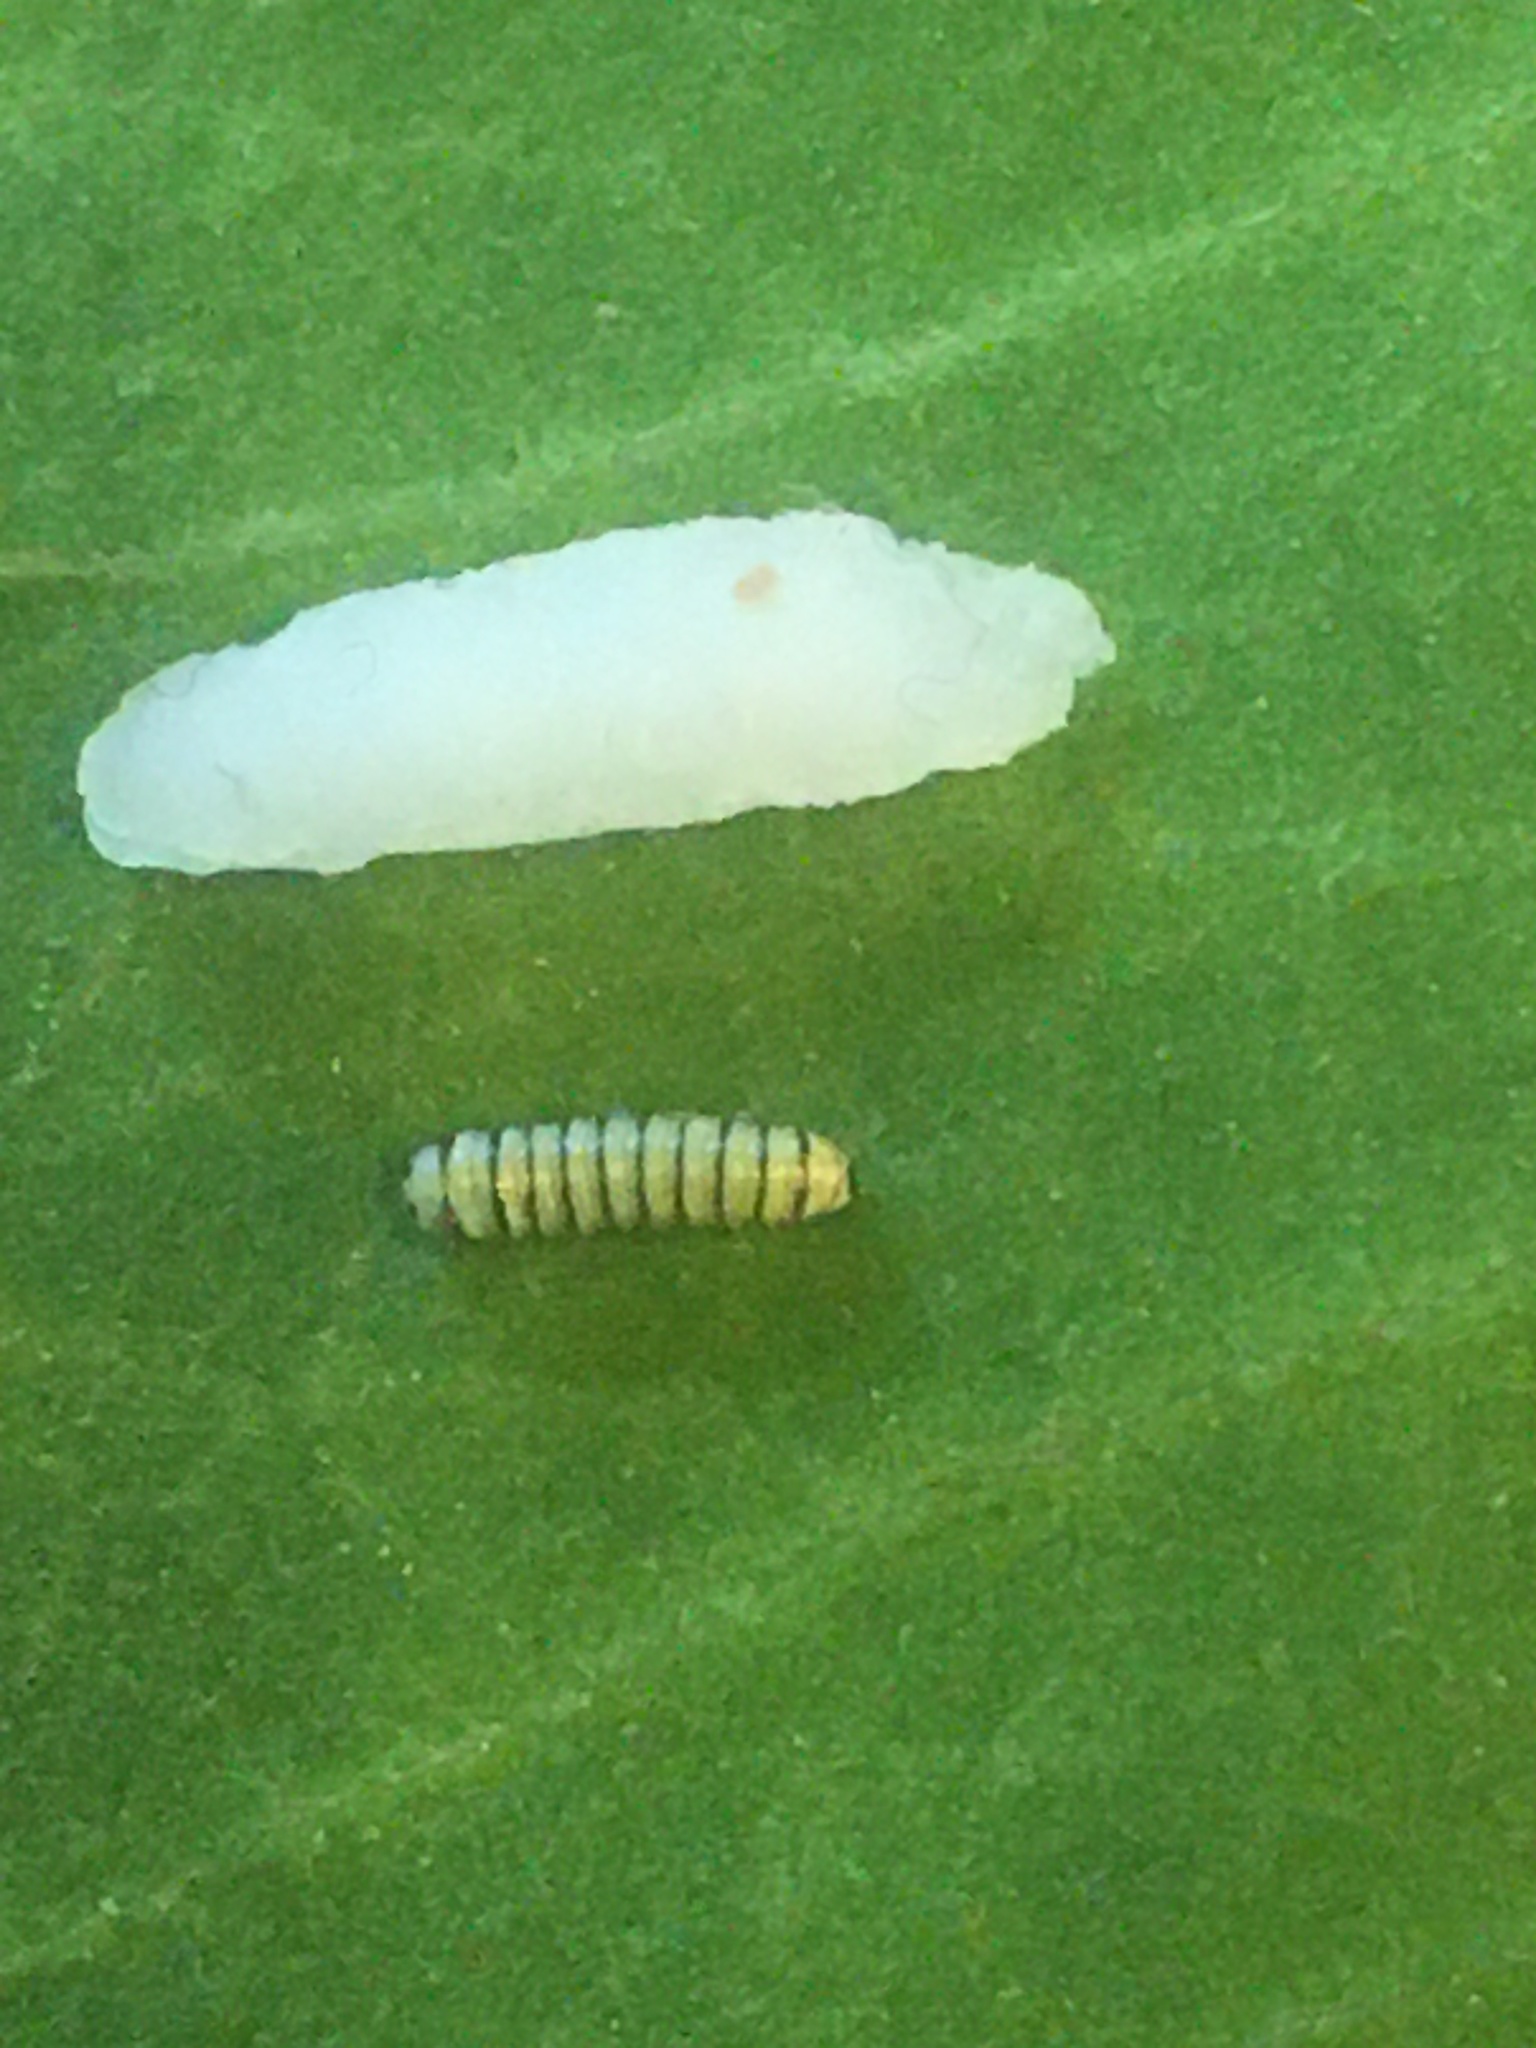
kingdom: Animalia
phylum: Arthropoda
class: Insecta
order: Lepidoptera
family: Nymphalidae
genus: Danaus
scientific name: Danaus plexippus
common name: Monarch
